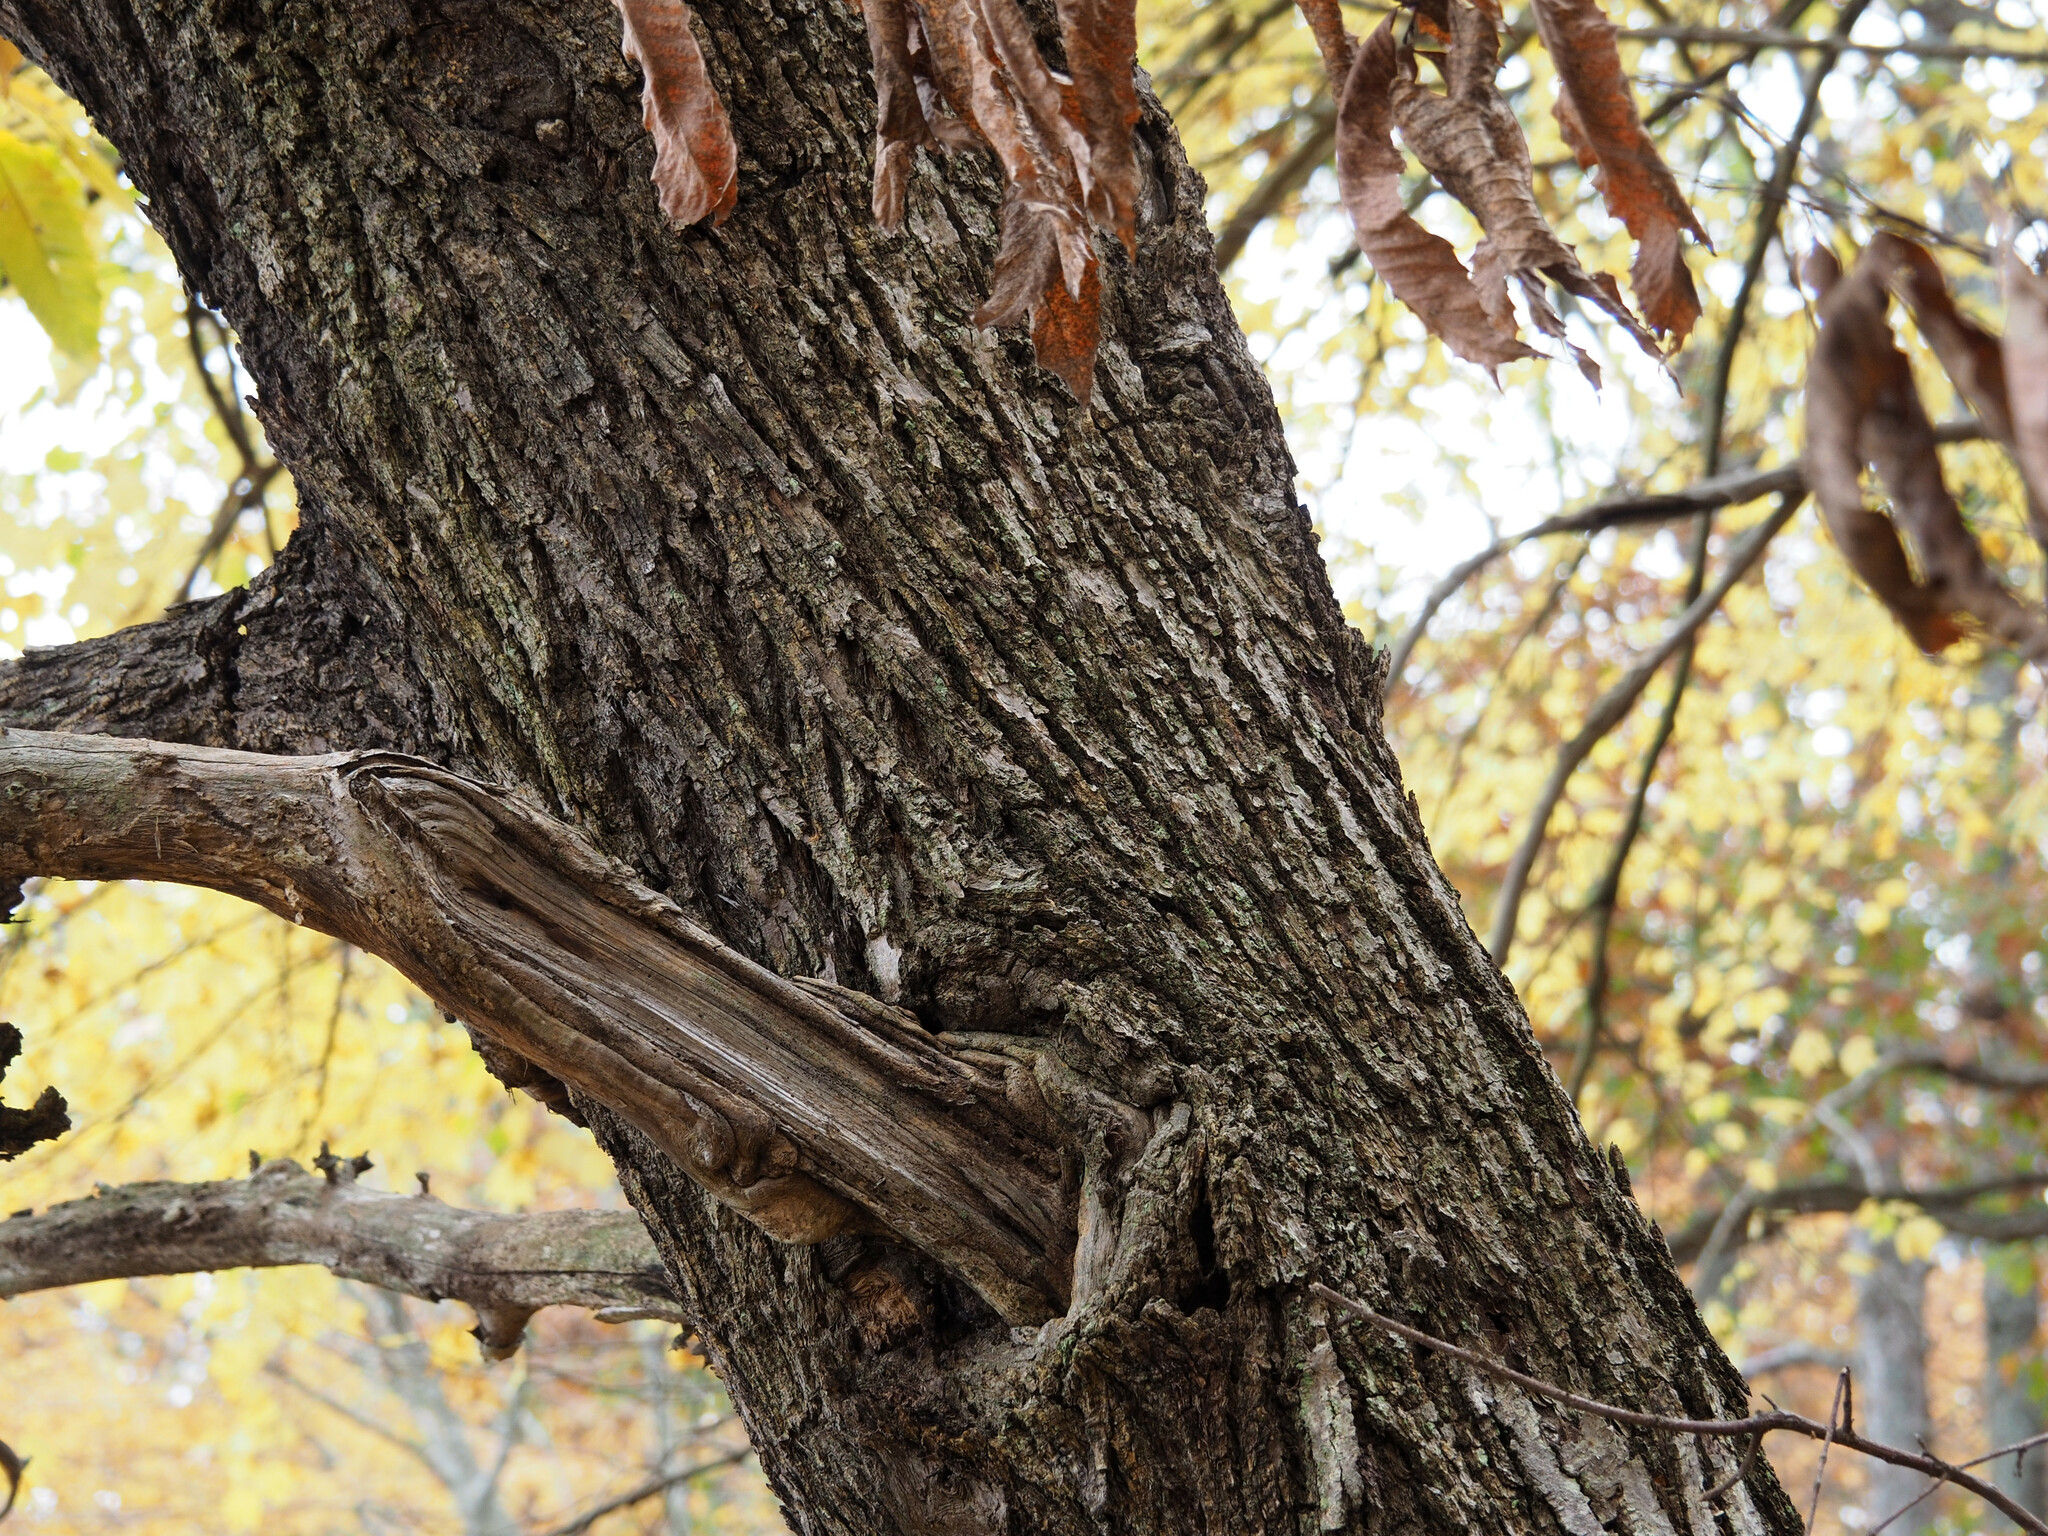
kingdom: Plantae
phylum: Tracheophyta
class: Magnoliopsida
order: Fagales
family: Fagaceae
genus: Castanea
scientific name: Castanea dentata
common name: American chestnut
